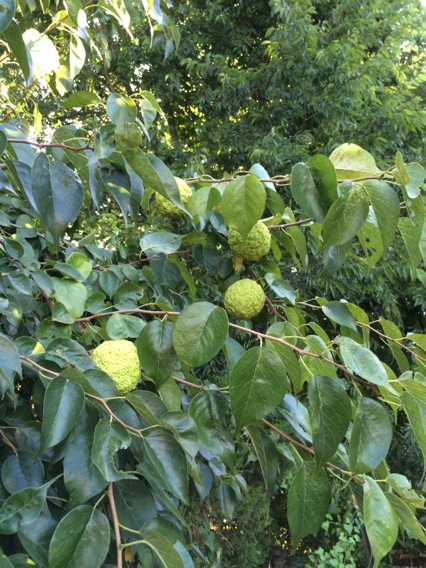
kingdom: Plantae
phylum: Tracheophyta
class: Magnoliopsida
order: Rosales
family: Moraceae
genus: Maclura
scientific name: Maclura pomifera
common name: Osage-orange
